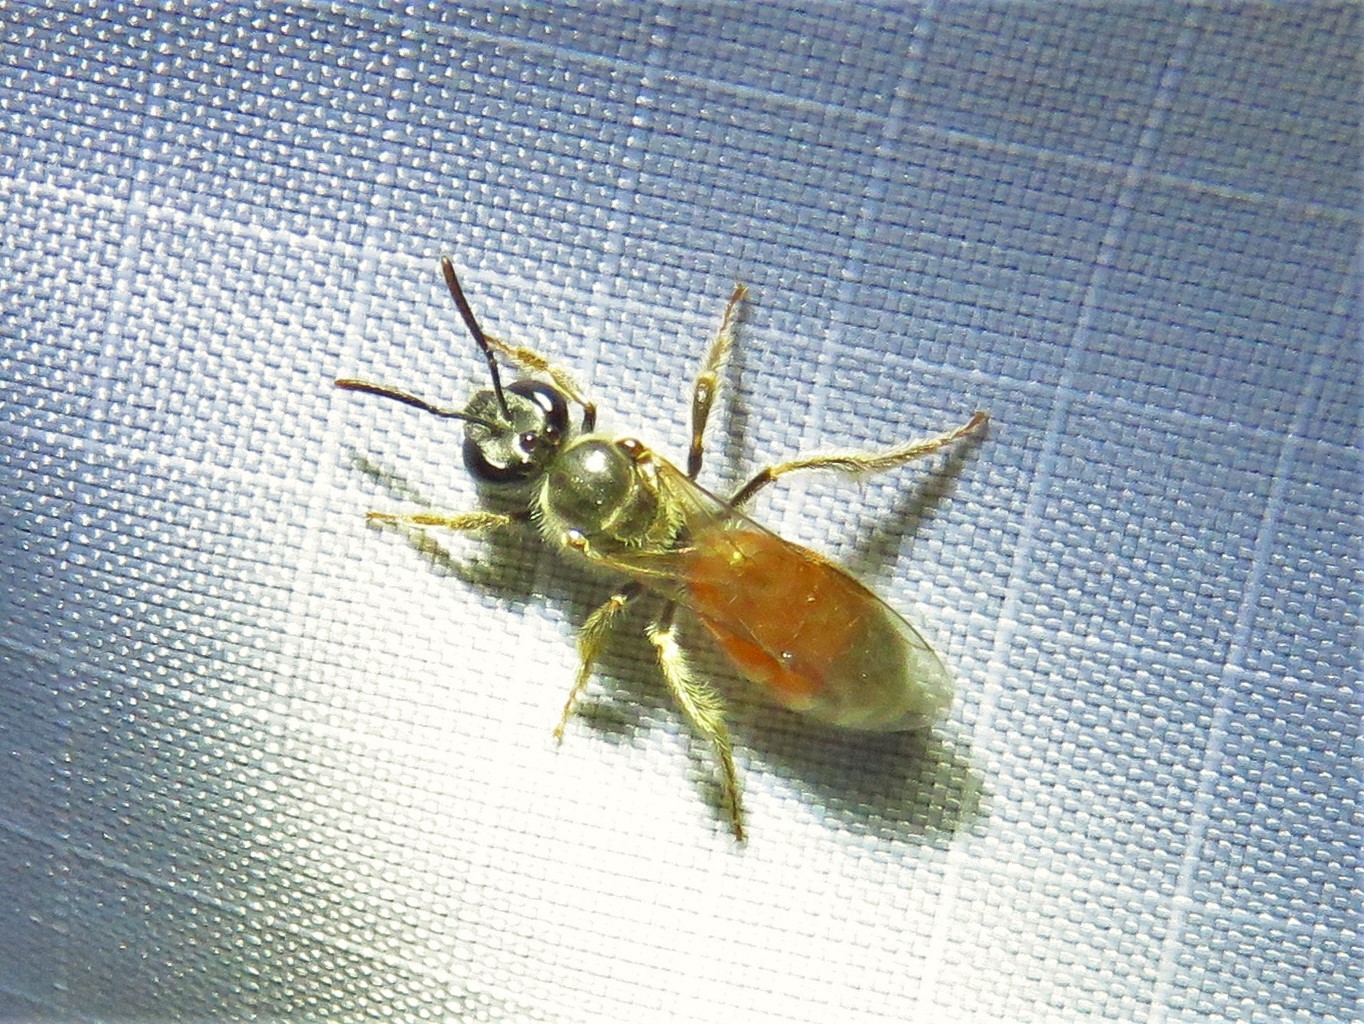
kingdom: Animalia
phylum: Arthropoda
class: Insecta
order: Hymenoptera
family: Halictidae
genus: Lasioglossum
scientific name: Lasioglossum texanum
